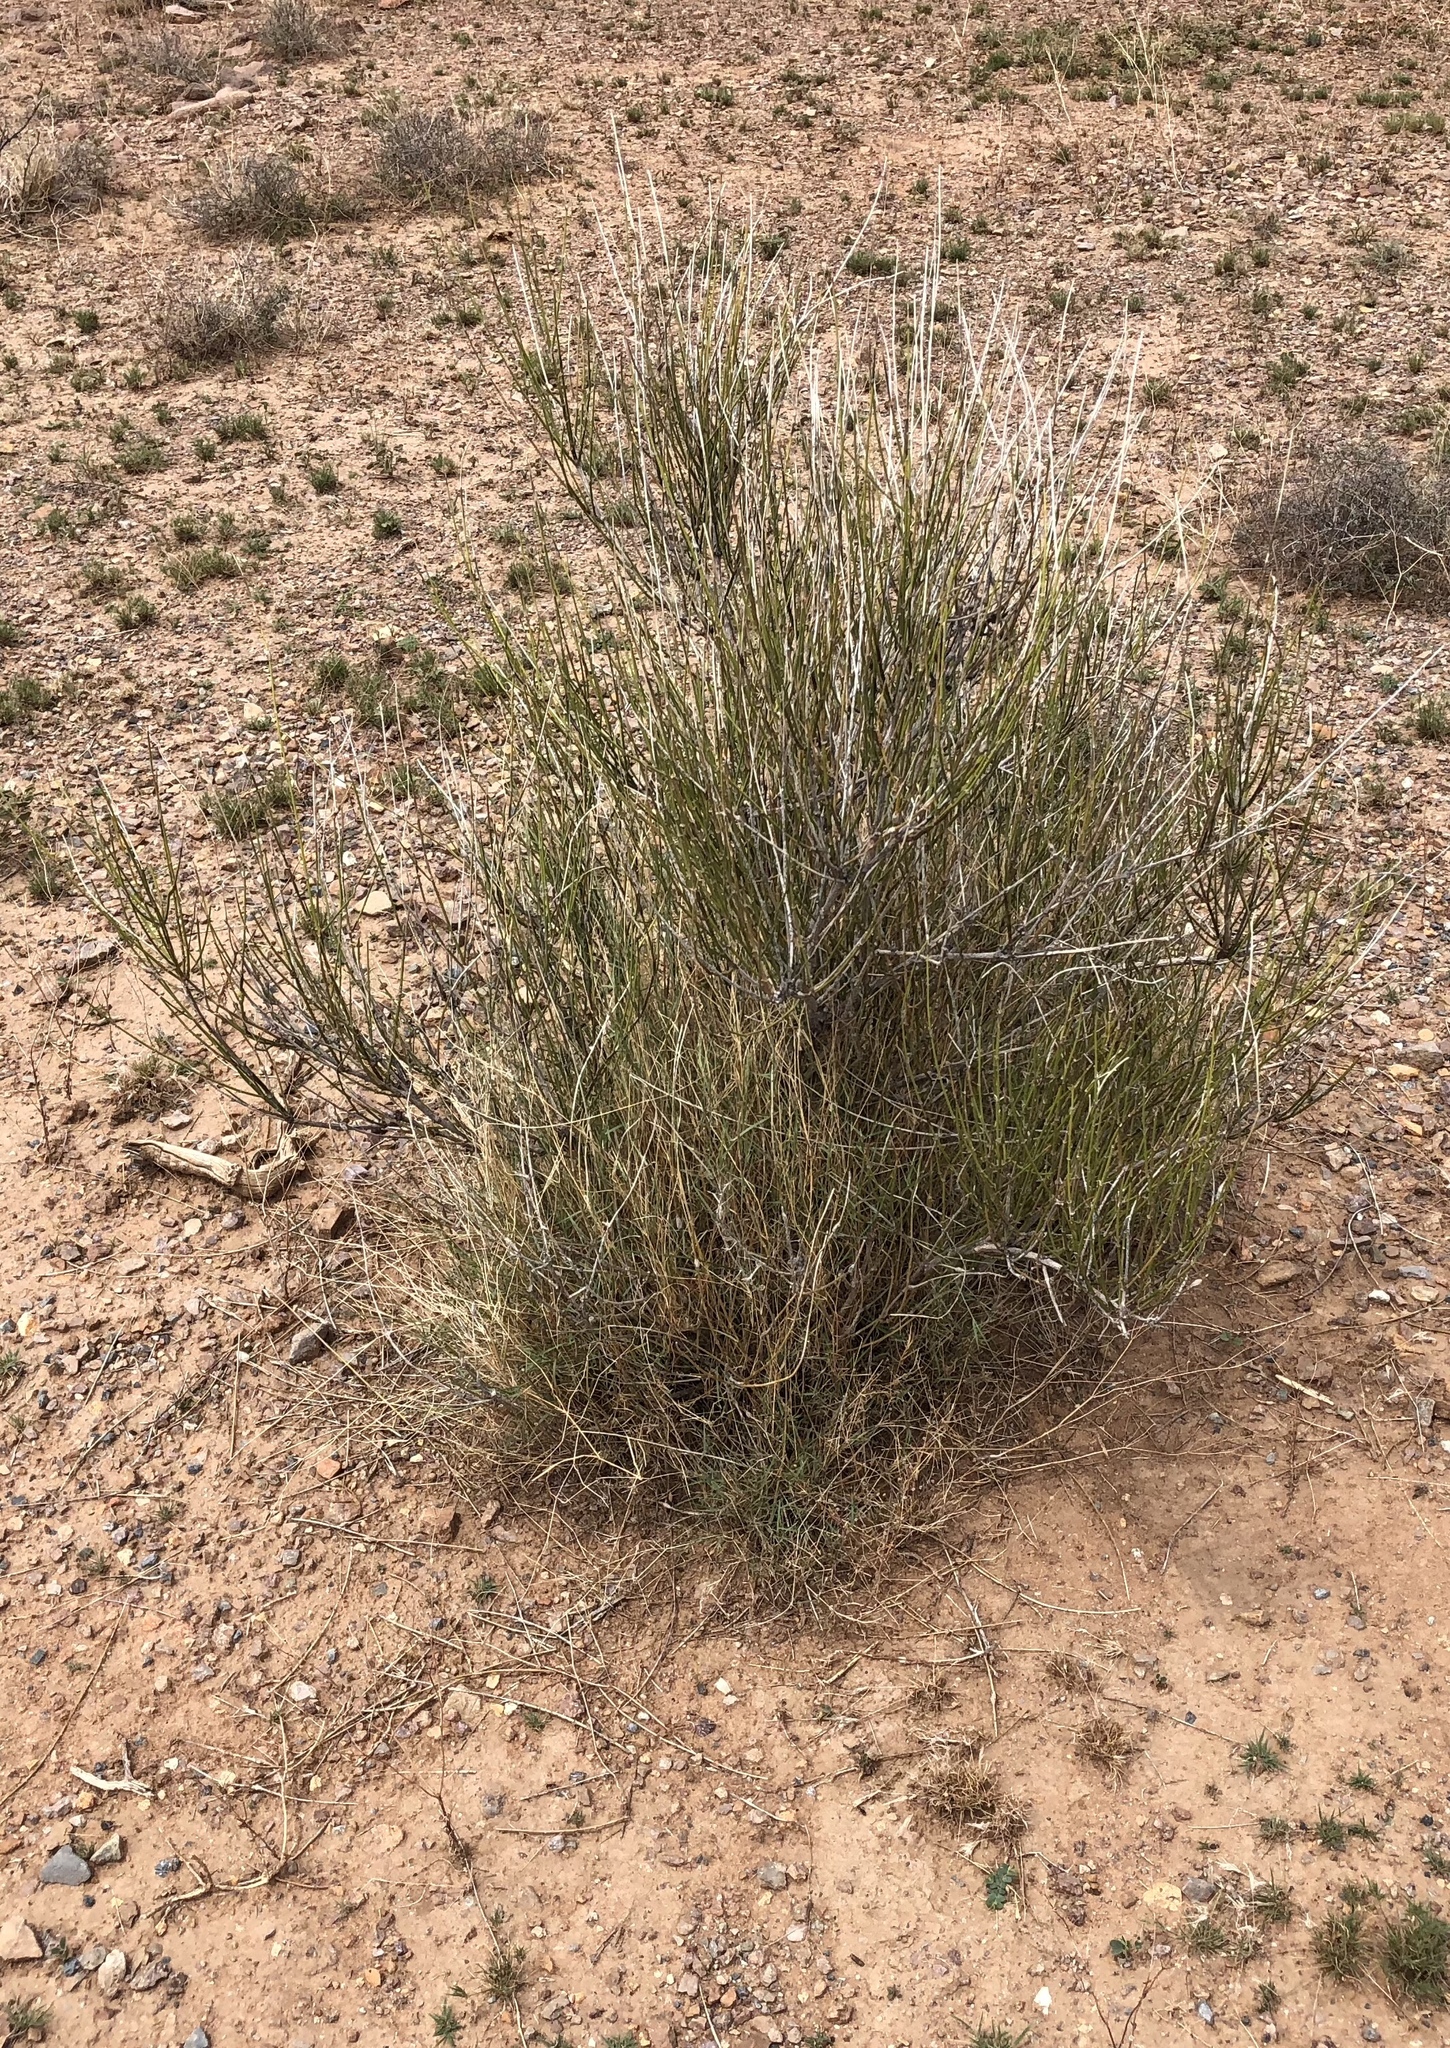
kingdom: Plantae
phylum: Tracheophyta
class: Gnetopsida
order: Ephedrales
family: Ephedraceae
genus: Ephedra
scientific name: Ephedra trifurca
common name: Mexican-tea
